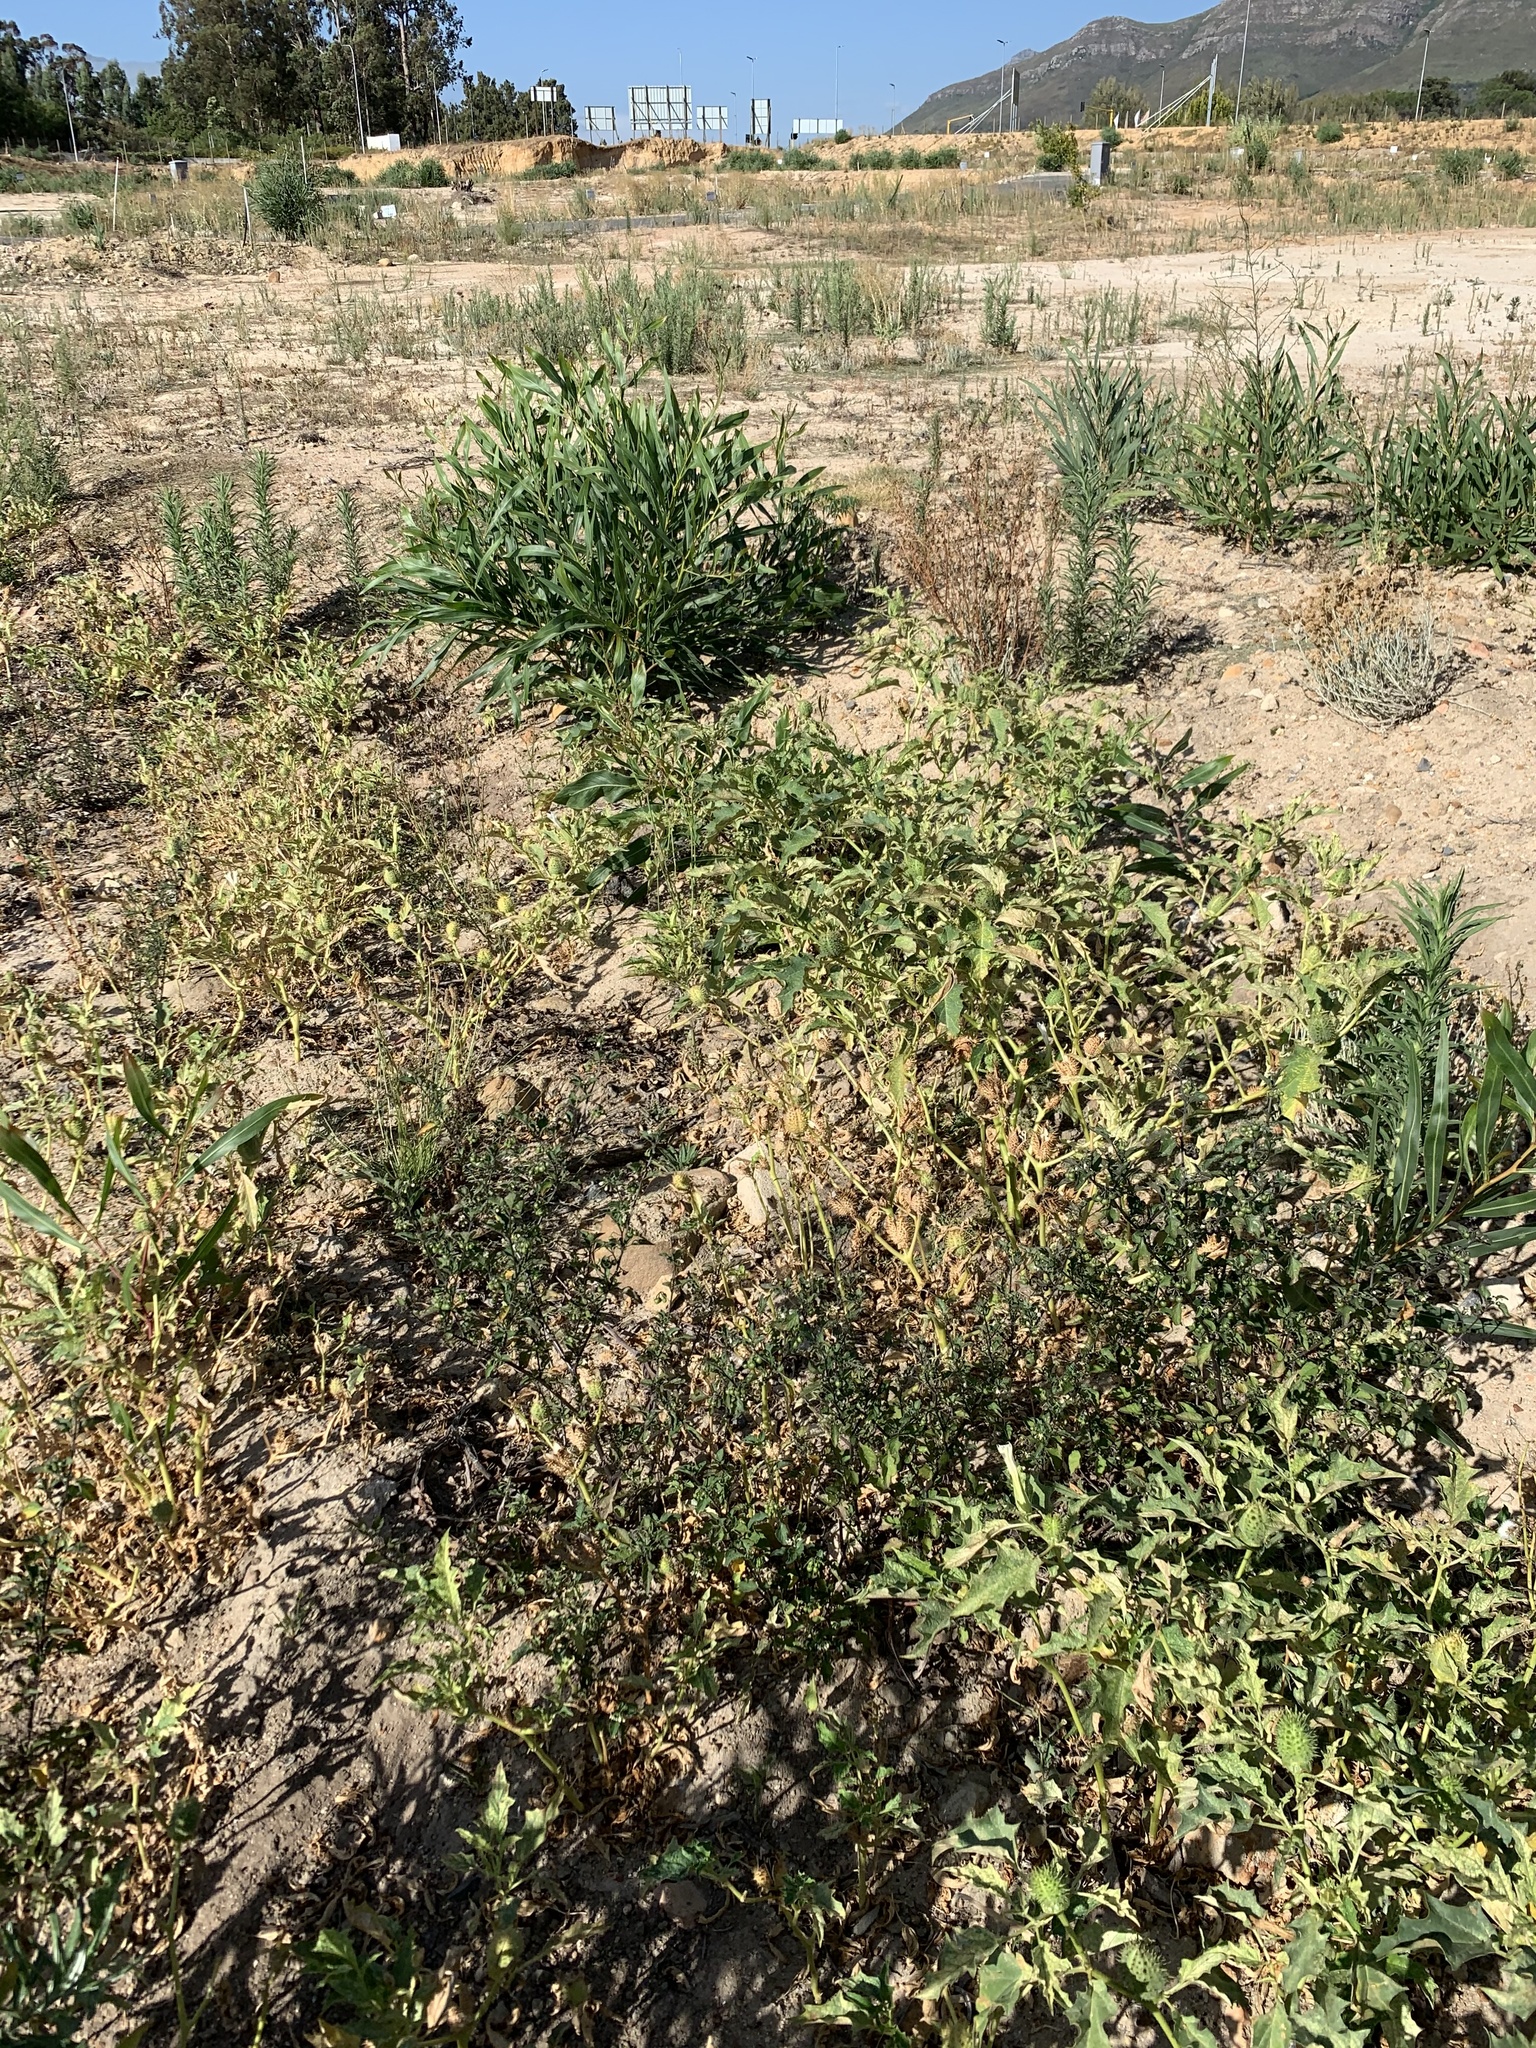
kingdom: Plantae
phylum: Tracheophyta
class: Magnoliopsida
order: Solanales
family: Solanaceae
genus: Datura
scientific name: Datura stramonium
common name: Thorn-apple
